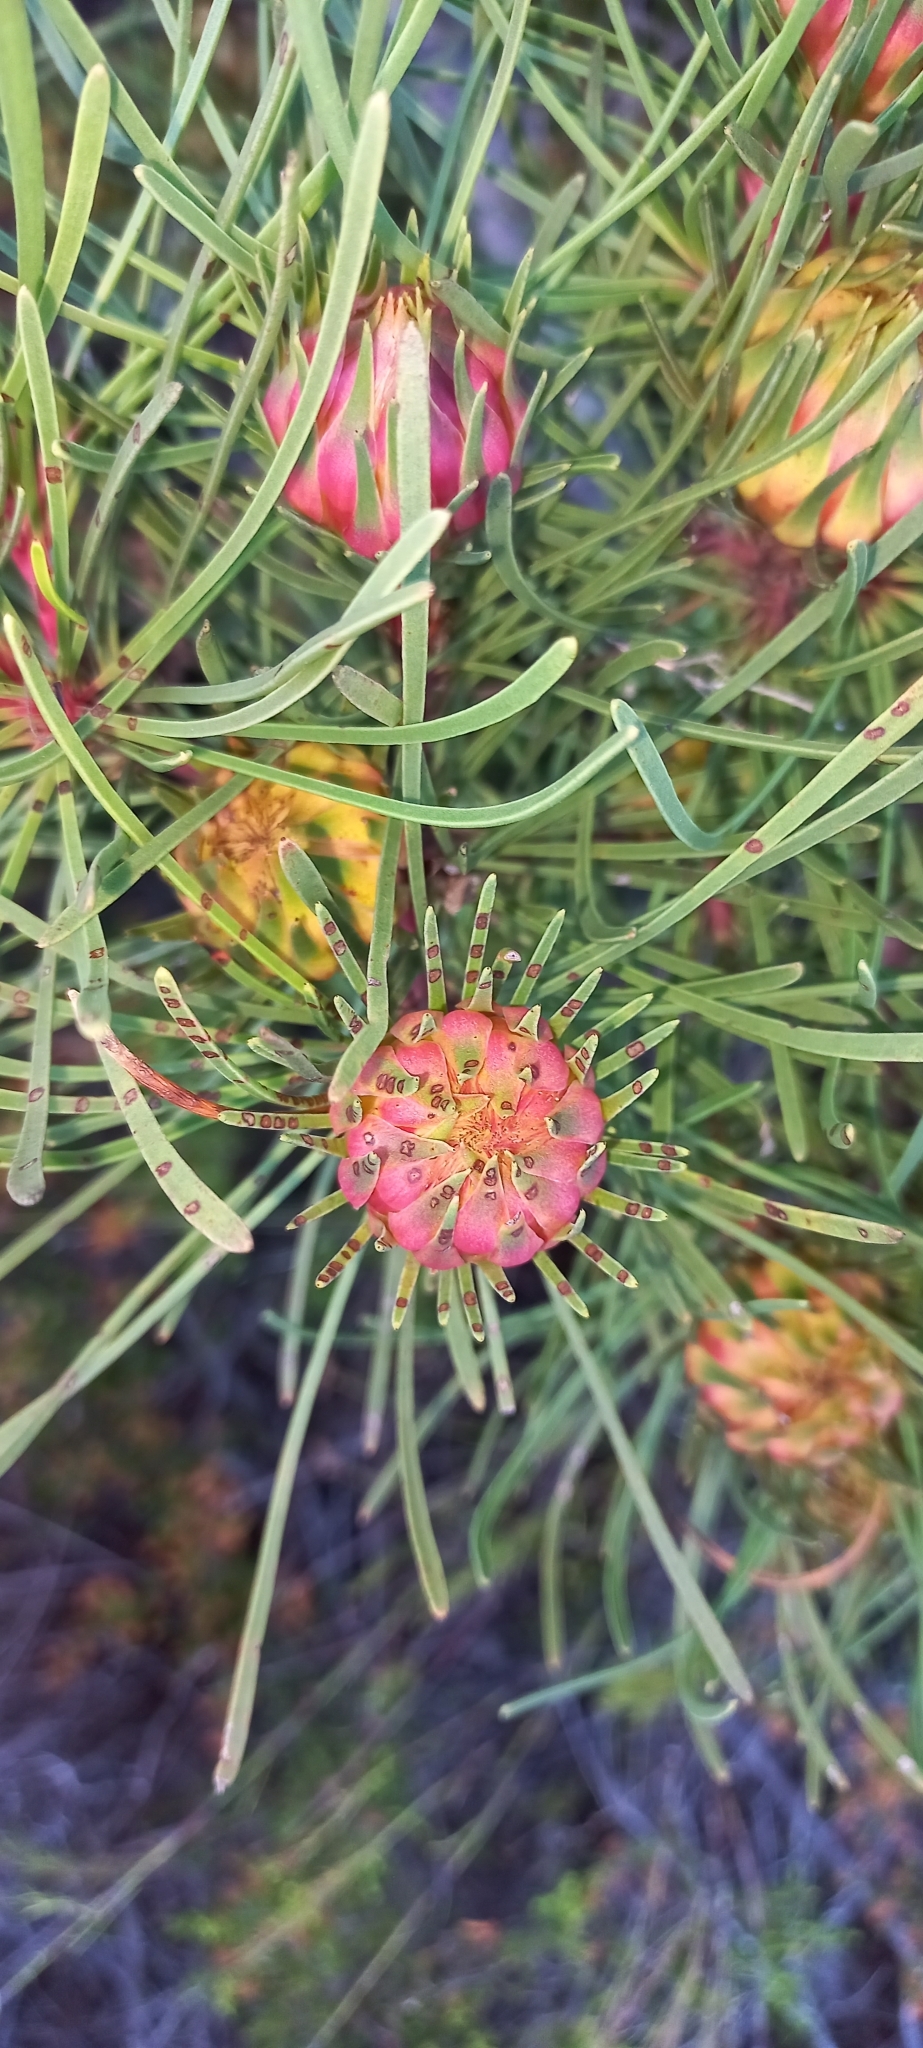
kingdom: Plantae
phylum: Tracheophyta
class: Magnoliopsida
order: Proteales
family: Proteaceae
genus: Aulax
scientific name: Aulax cancellata
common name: Channel-leaf featherbush
